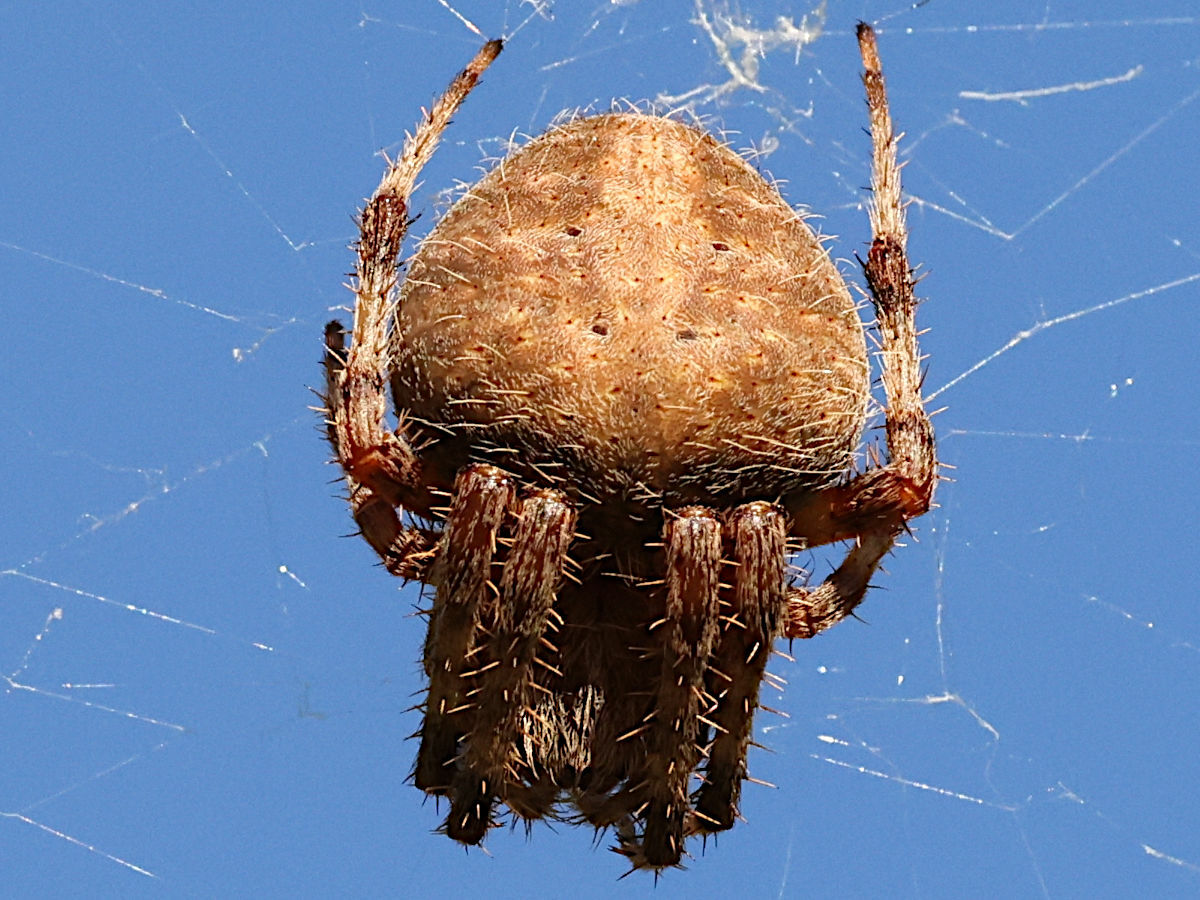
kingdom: Animalia
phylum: Arthropoda
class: Arachnida
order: Araneae
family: Araneidae
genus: Neoscona
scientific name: Neoscona crucifera
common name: Spotted orbweaver
